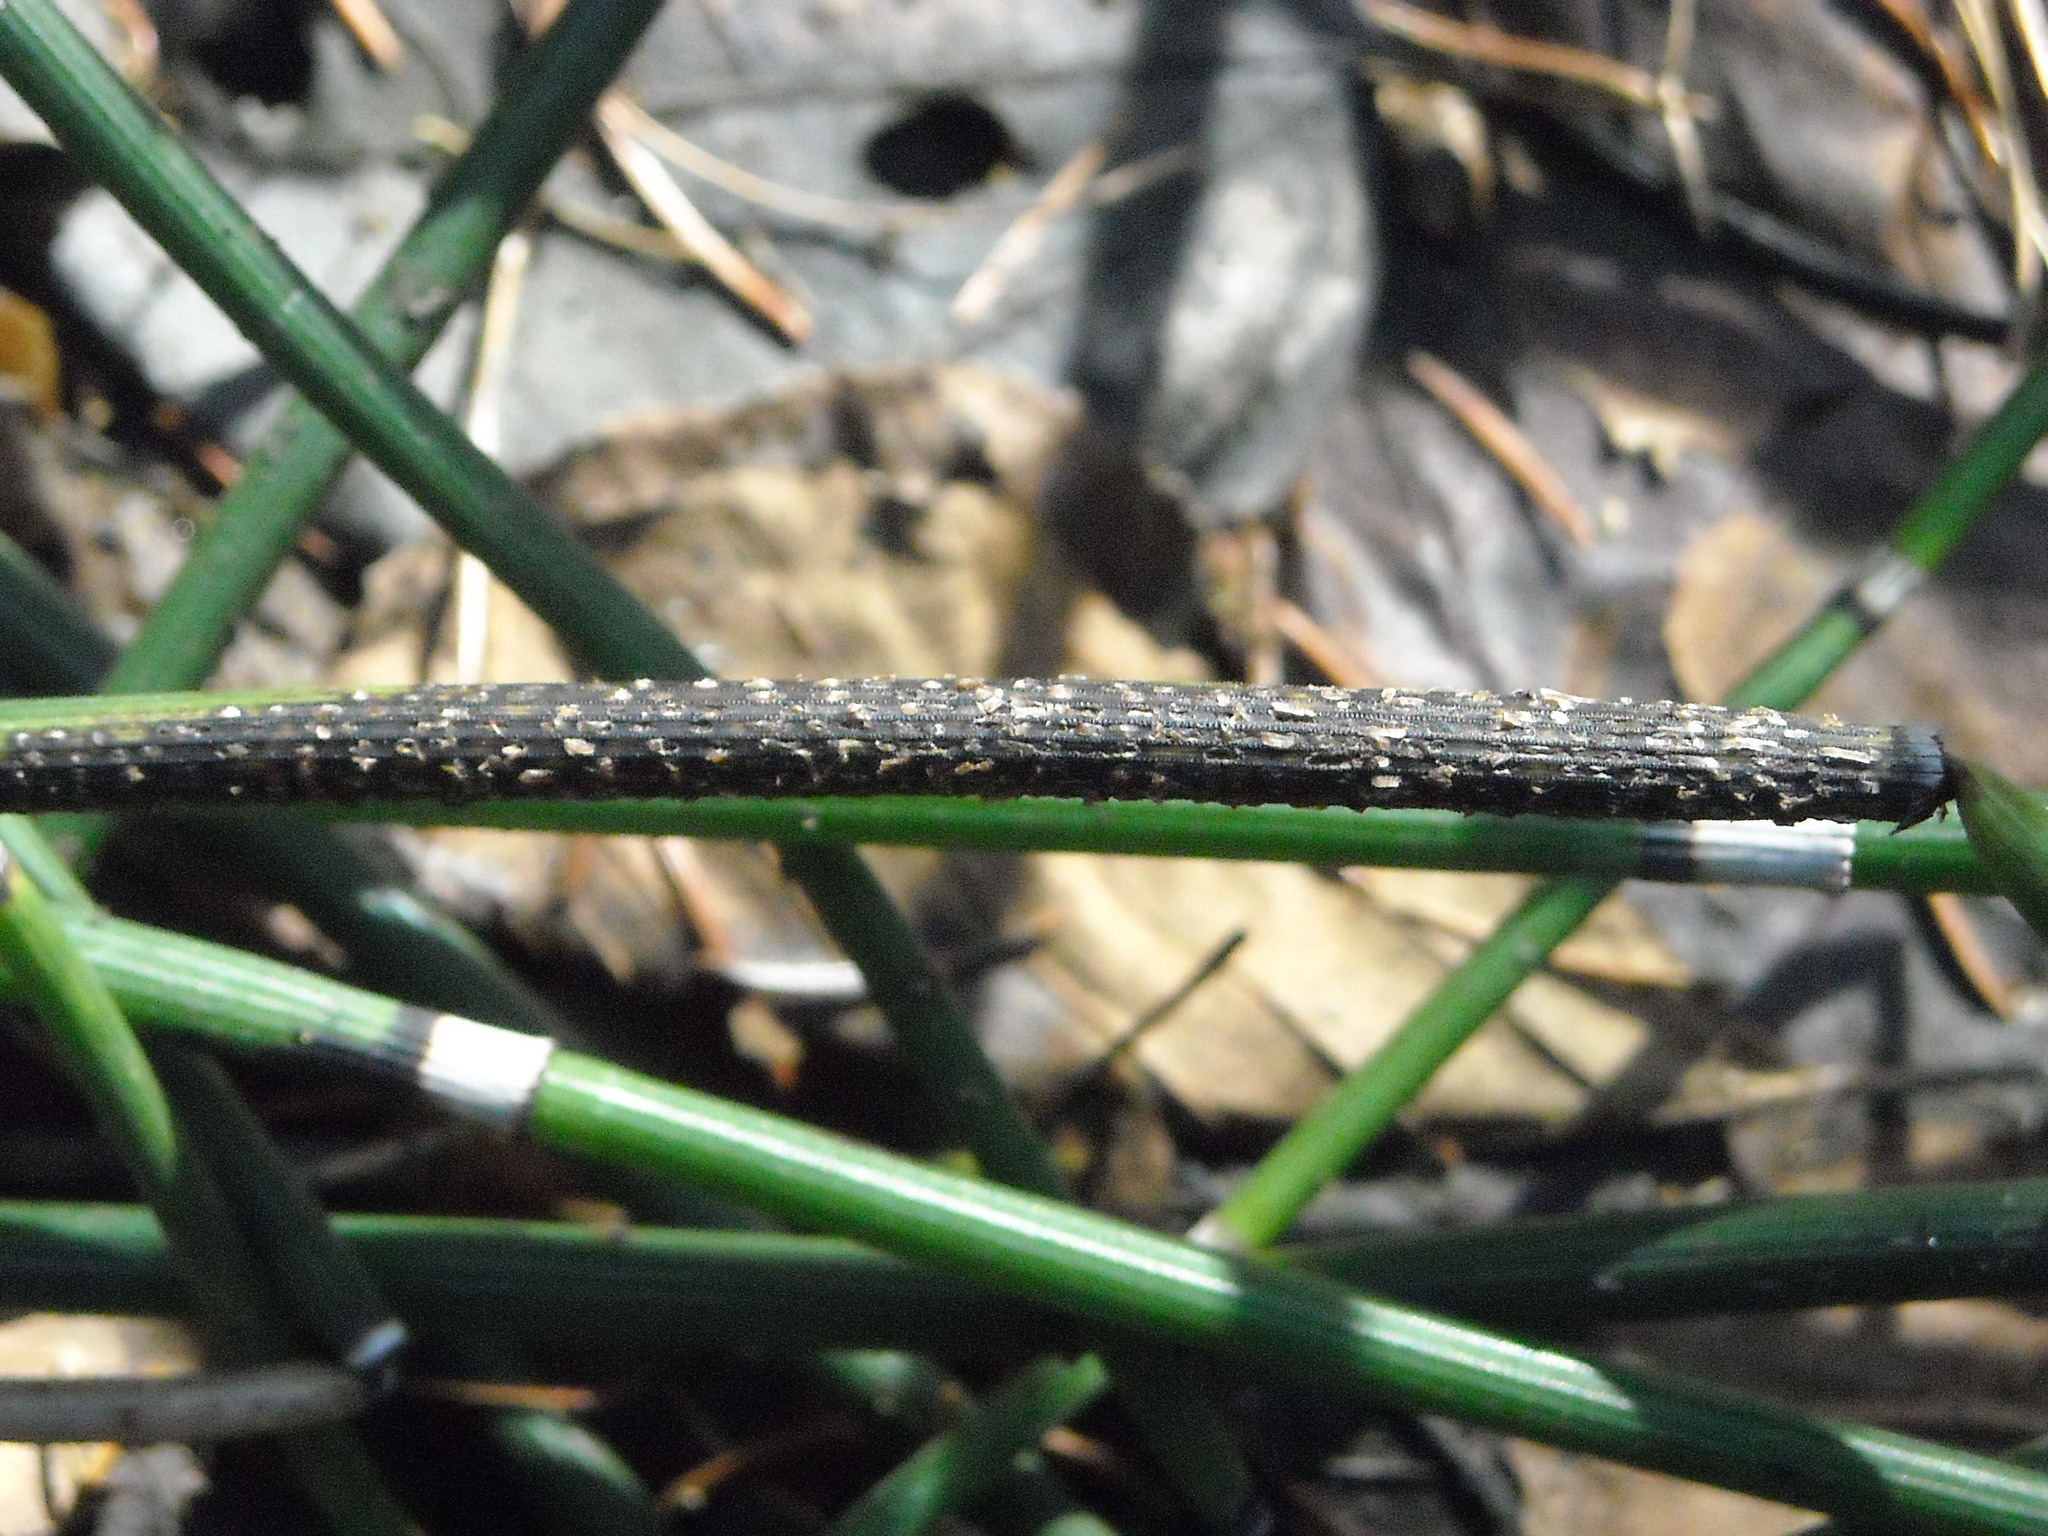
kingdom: Fungi
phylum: Ascomycota
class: Leotiomycetes
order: Helotiales
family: Helotiaceae
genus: Stamnaria
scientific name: Stamnaria americana
